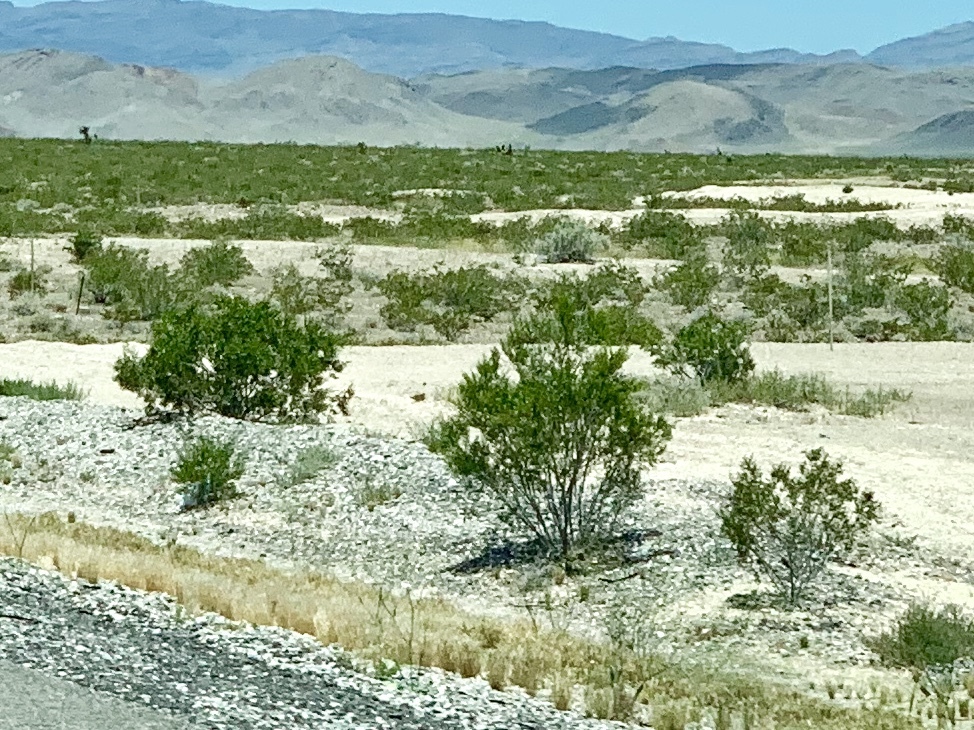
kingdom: Plantae
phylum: Tracheophyta
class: Magnoliopsida
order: Zygophyllales
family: Zygophyllaceae
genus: Larrea
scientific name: Larrea tridentata
